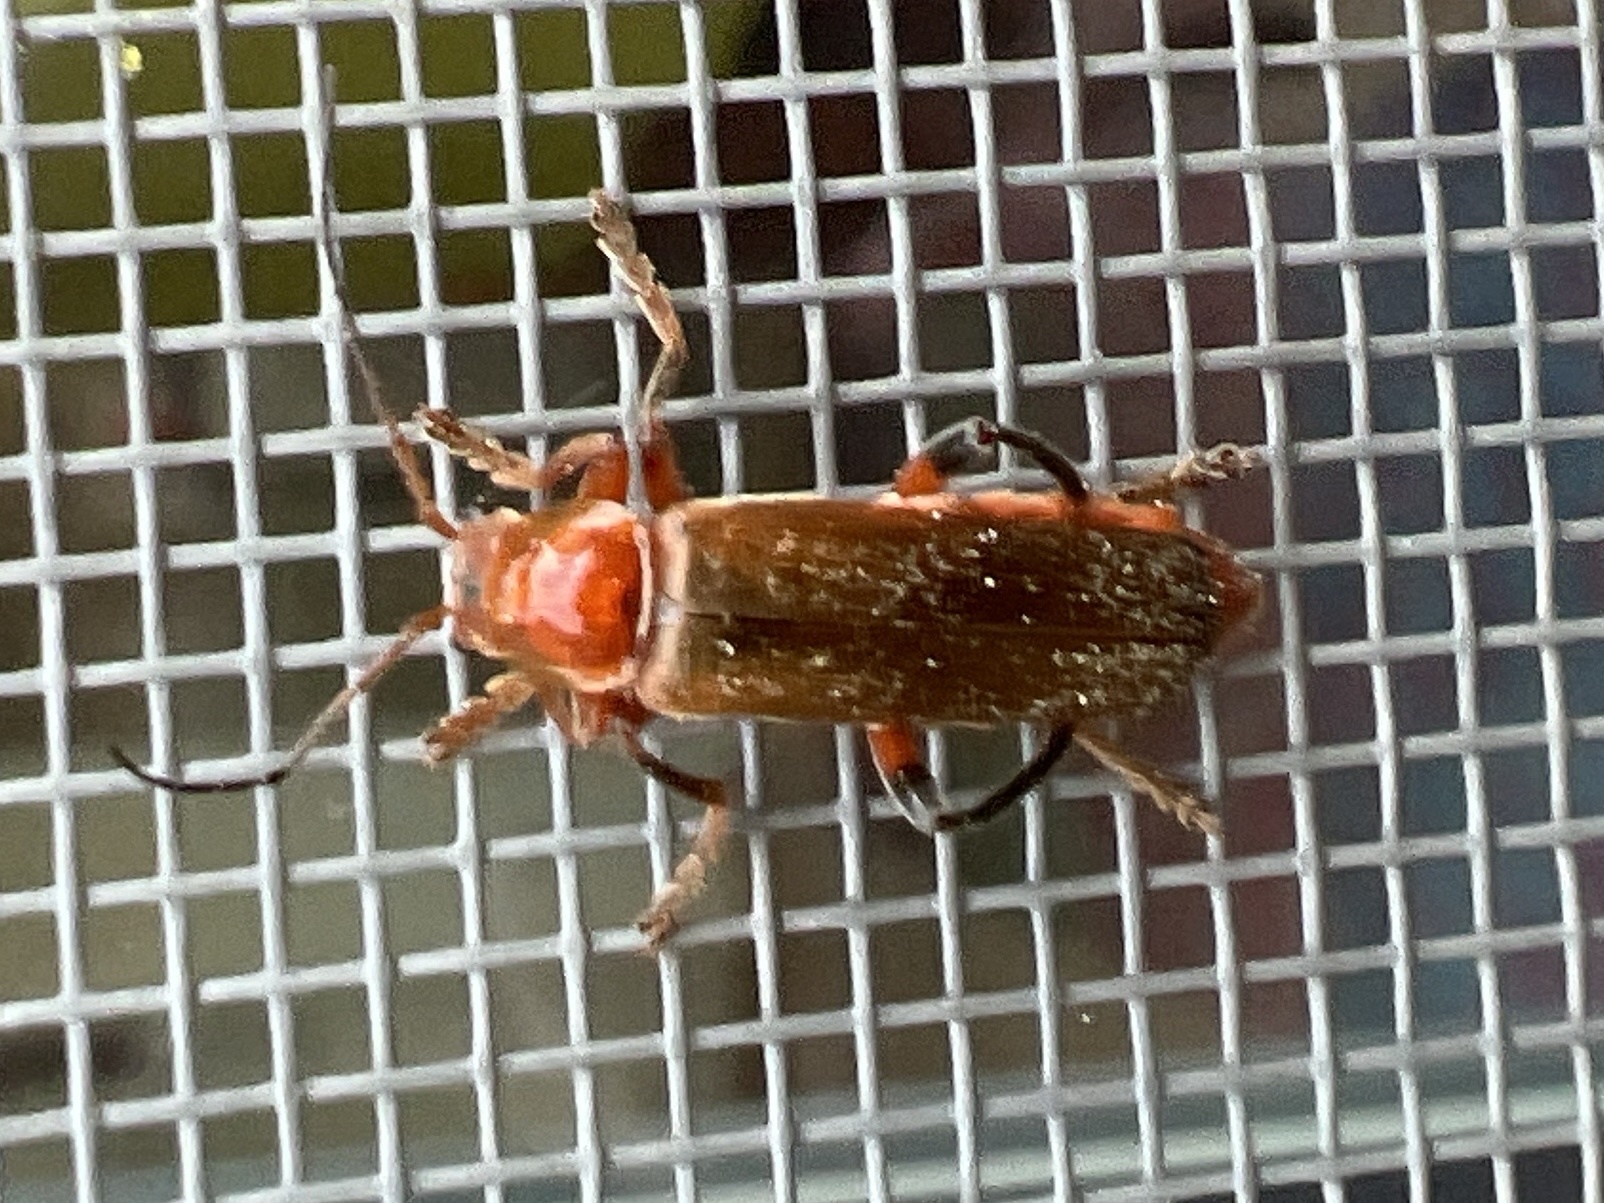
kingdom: Animalia
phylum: Arthropoda
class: Insecta
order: Coleoptera
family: Cantharidae
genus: Cantharis
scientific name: Cantharis livida
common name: Livid soldier beetle
